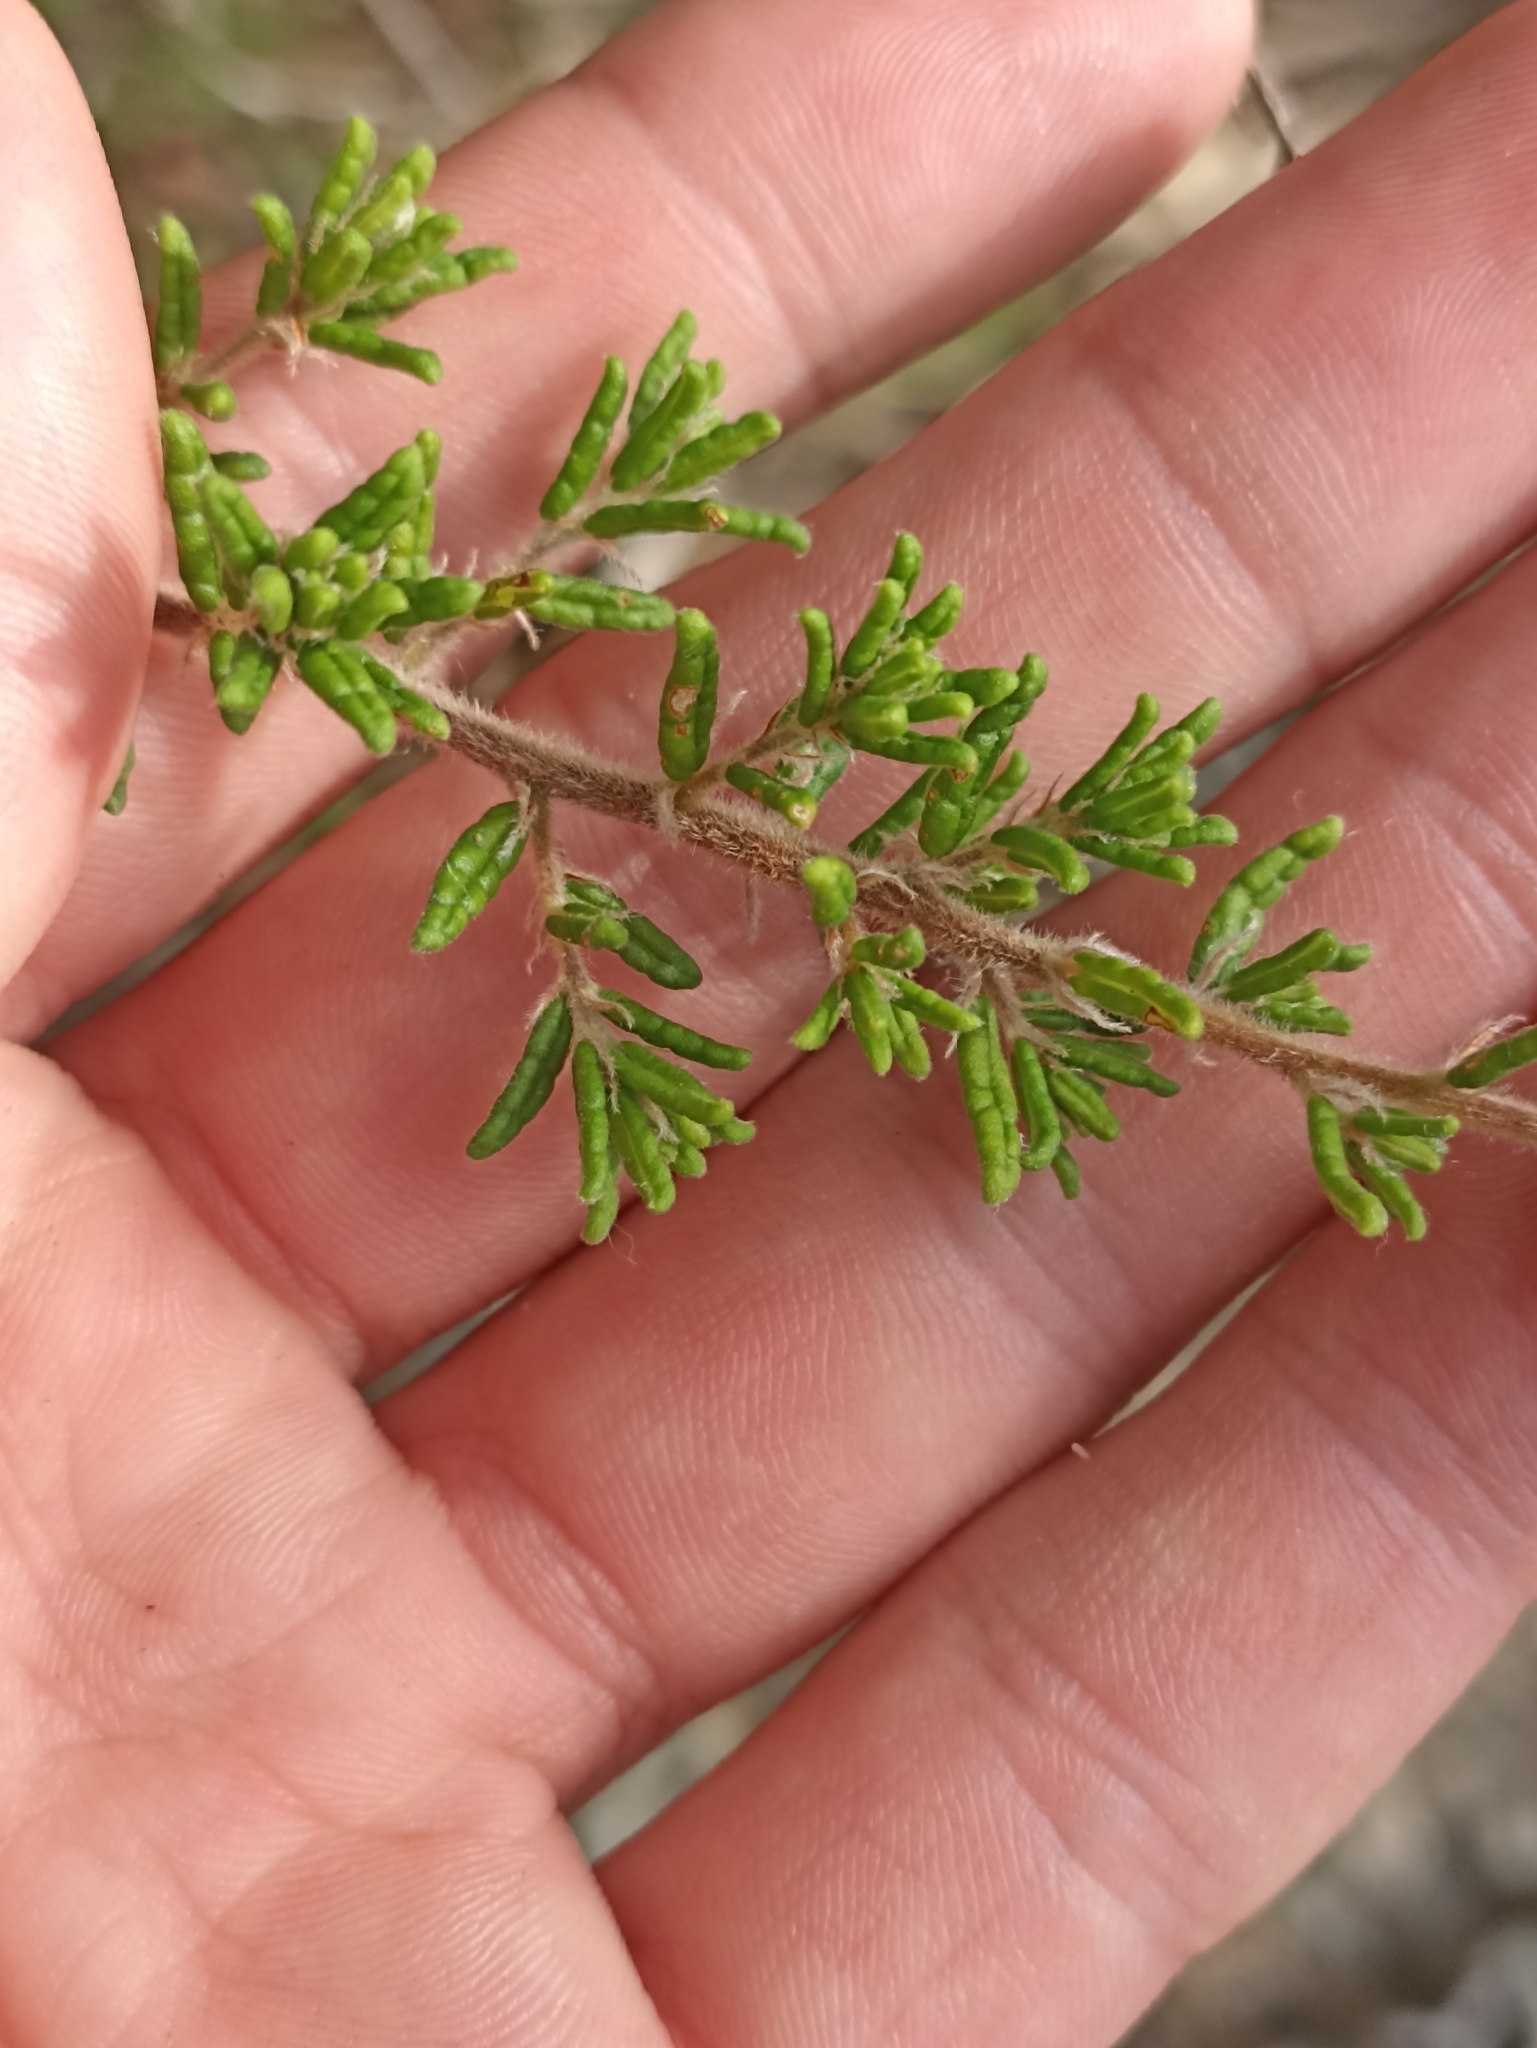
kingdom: Plantae
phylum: Tracheophyta
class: Magnoliopsida
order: Rosales
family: Rhamnaceae
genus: Pomaderris
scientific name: Pomaderris amoena
